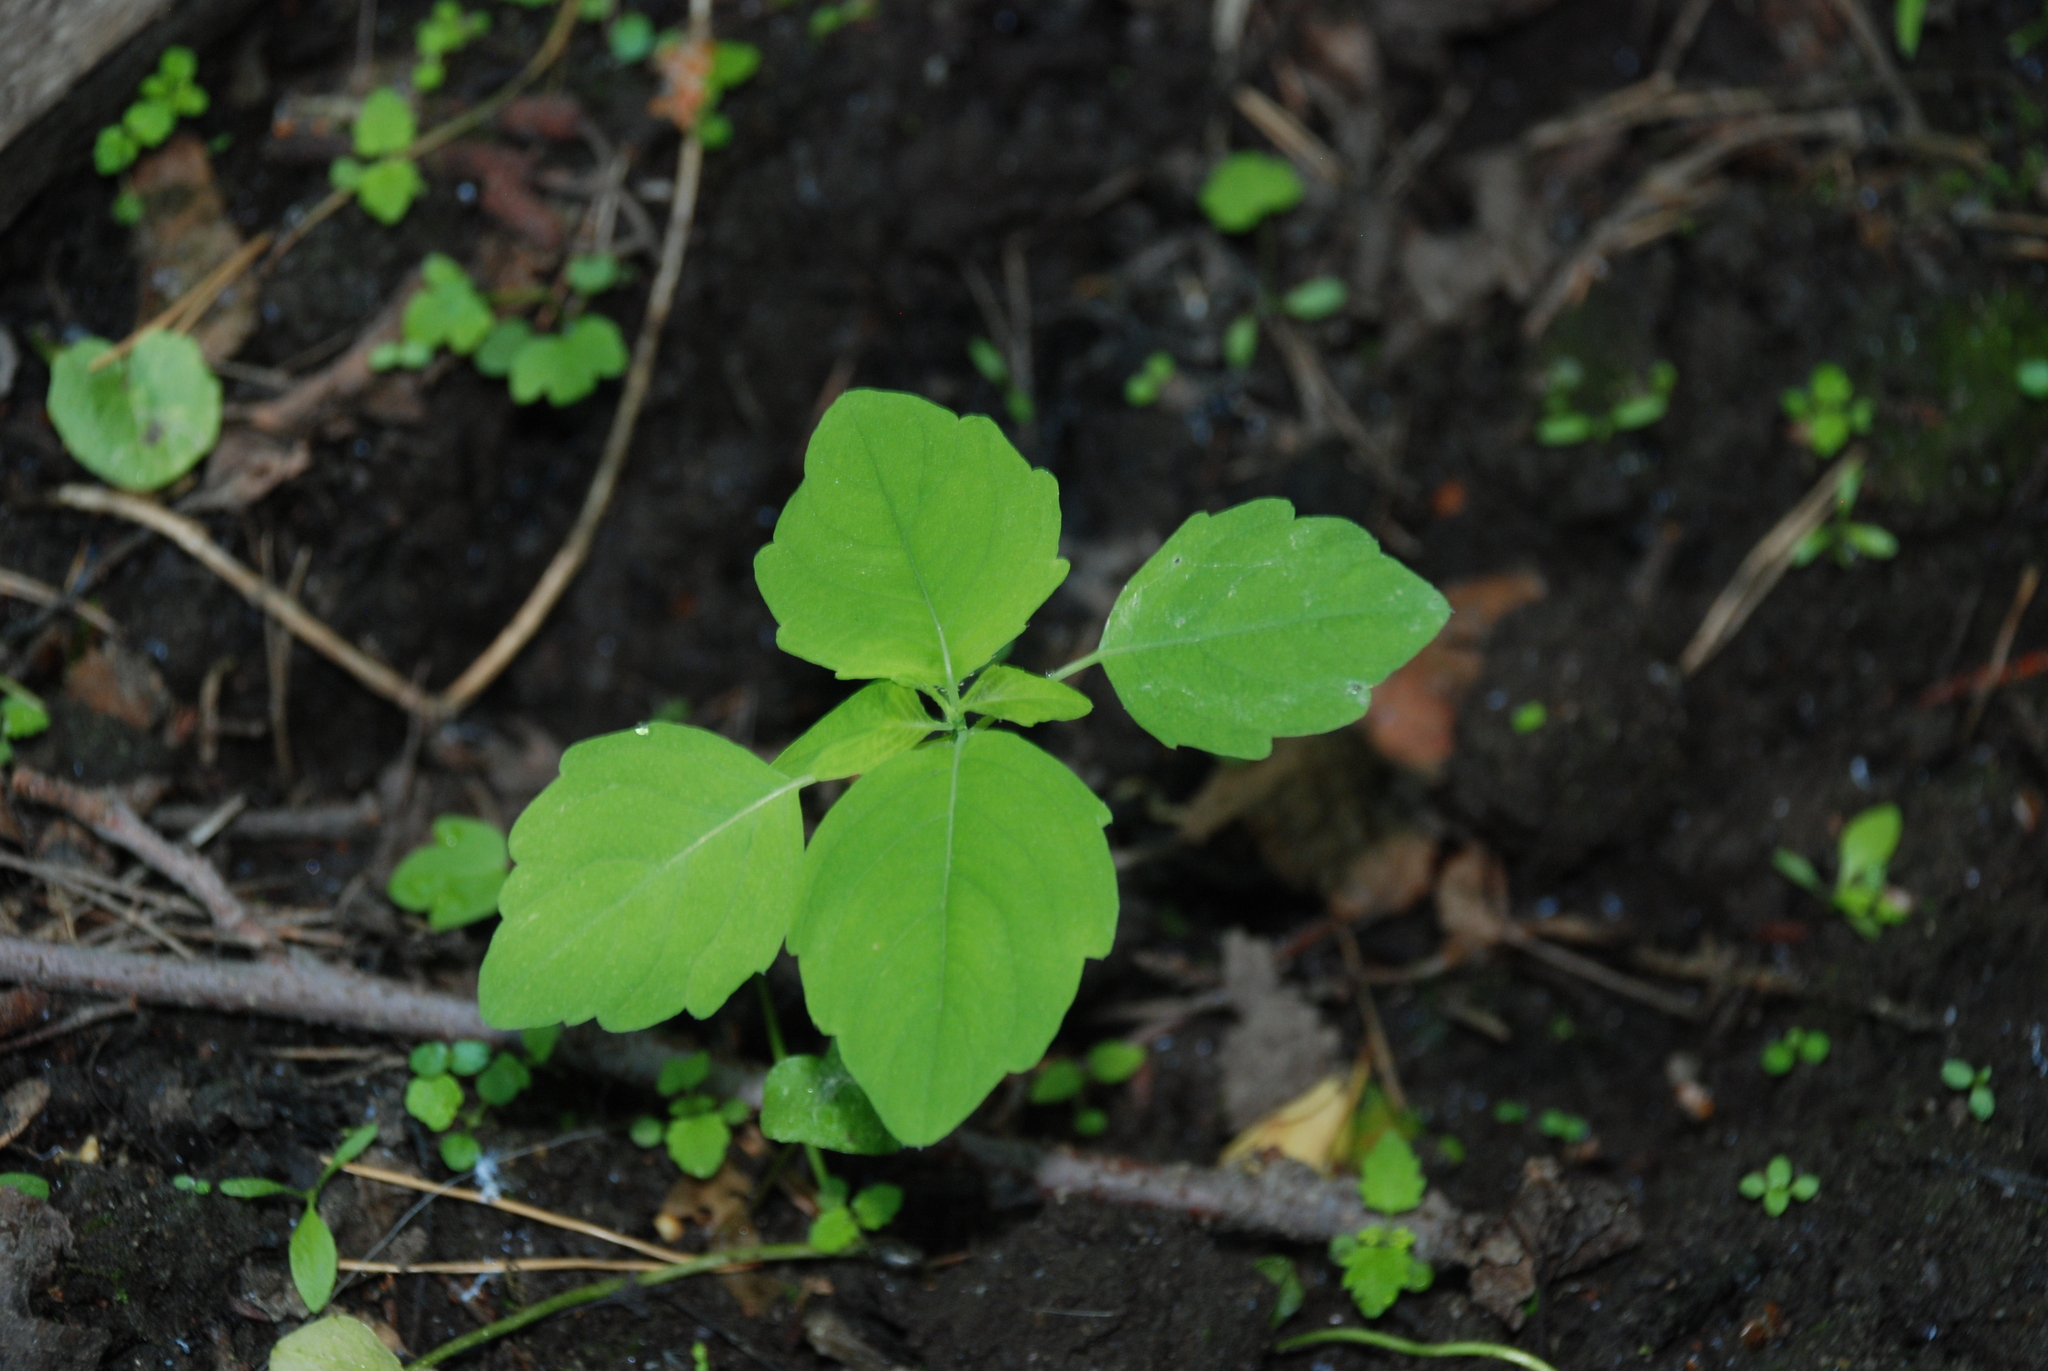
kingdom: Plantae
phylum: Tracheophyta
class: Magnoliopsida
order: Ericales
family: Balsaminaceae
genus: Impatiens
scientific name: Impatiens noli-tangere
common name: Touch-me-not balsam
